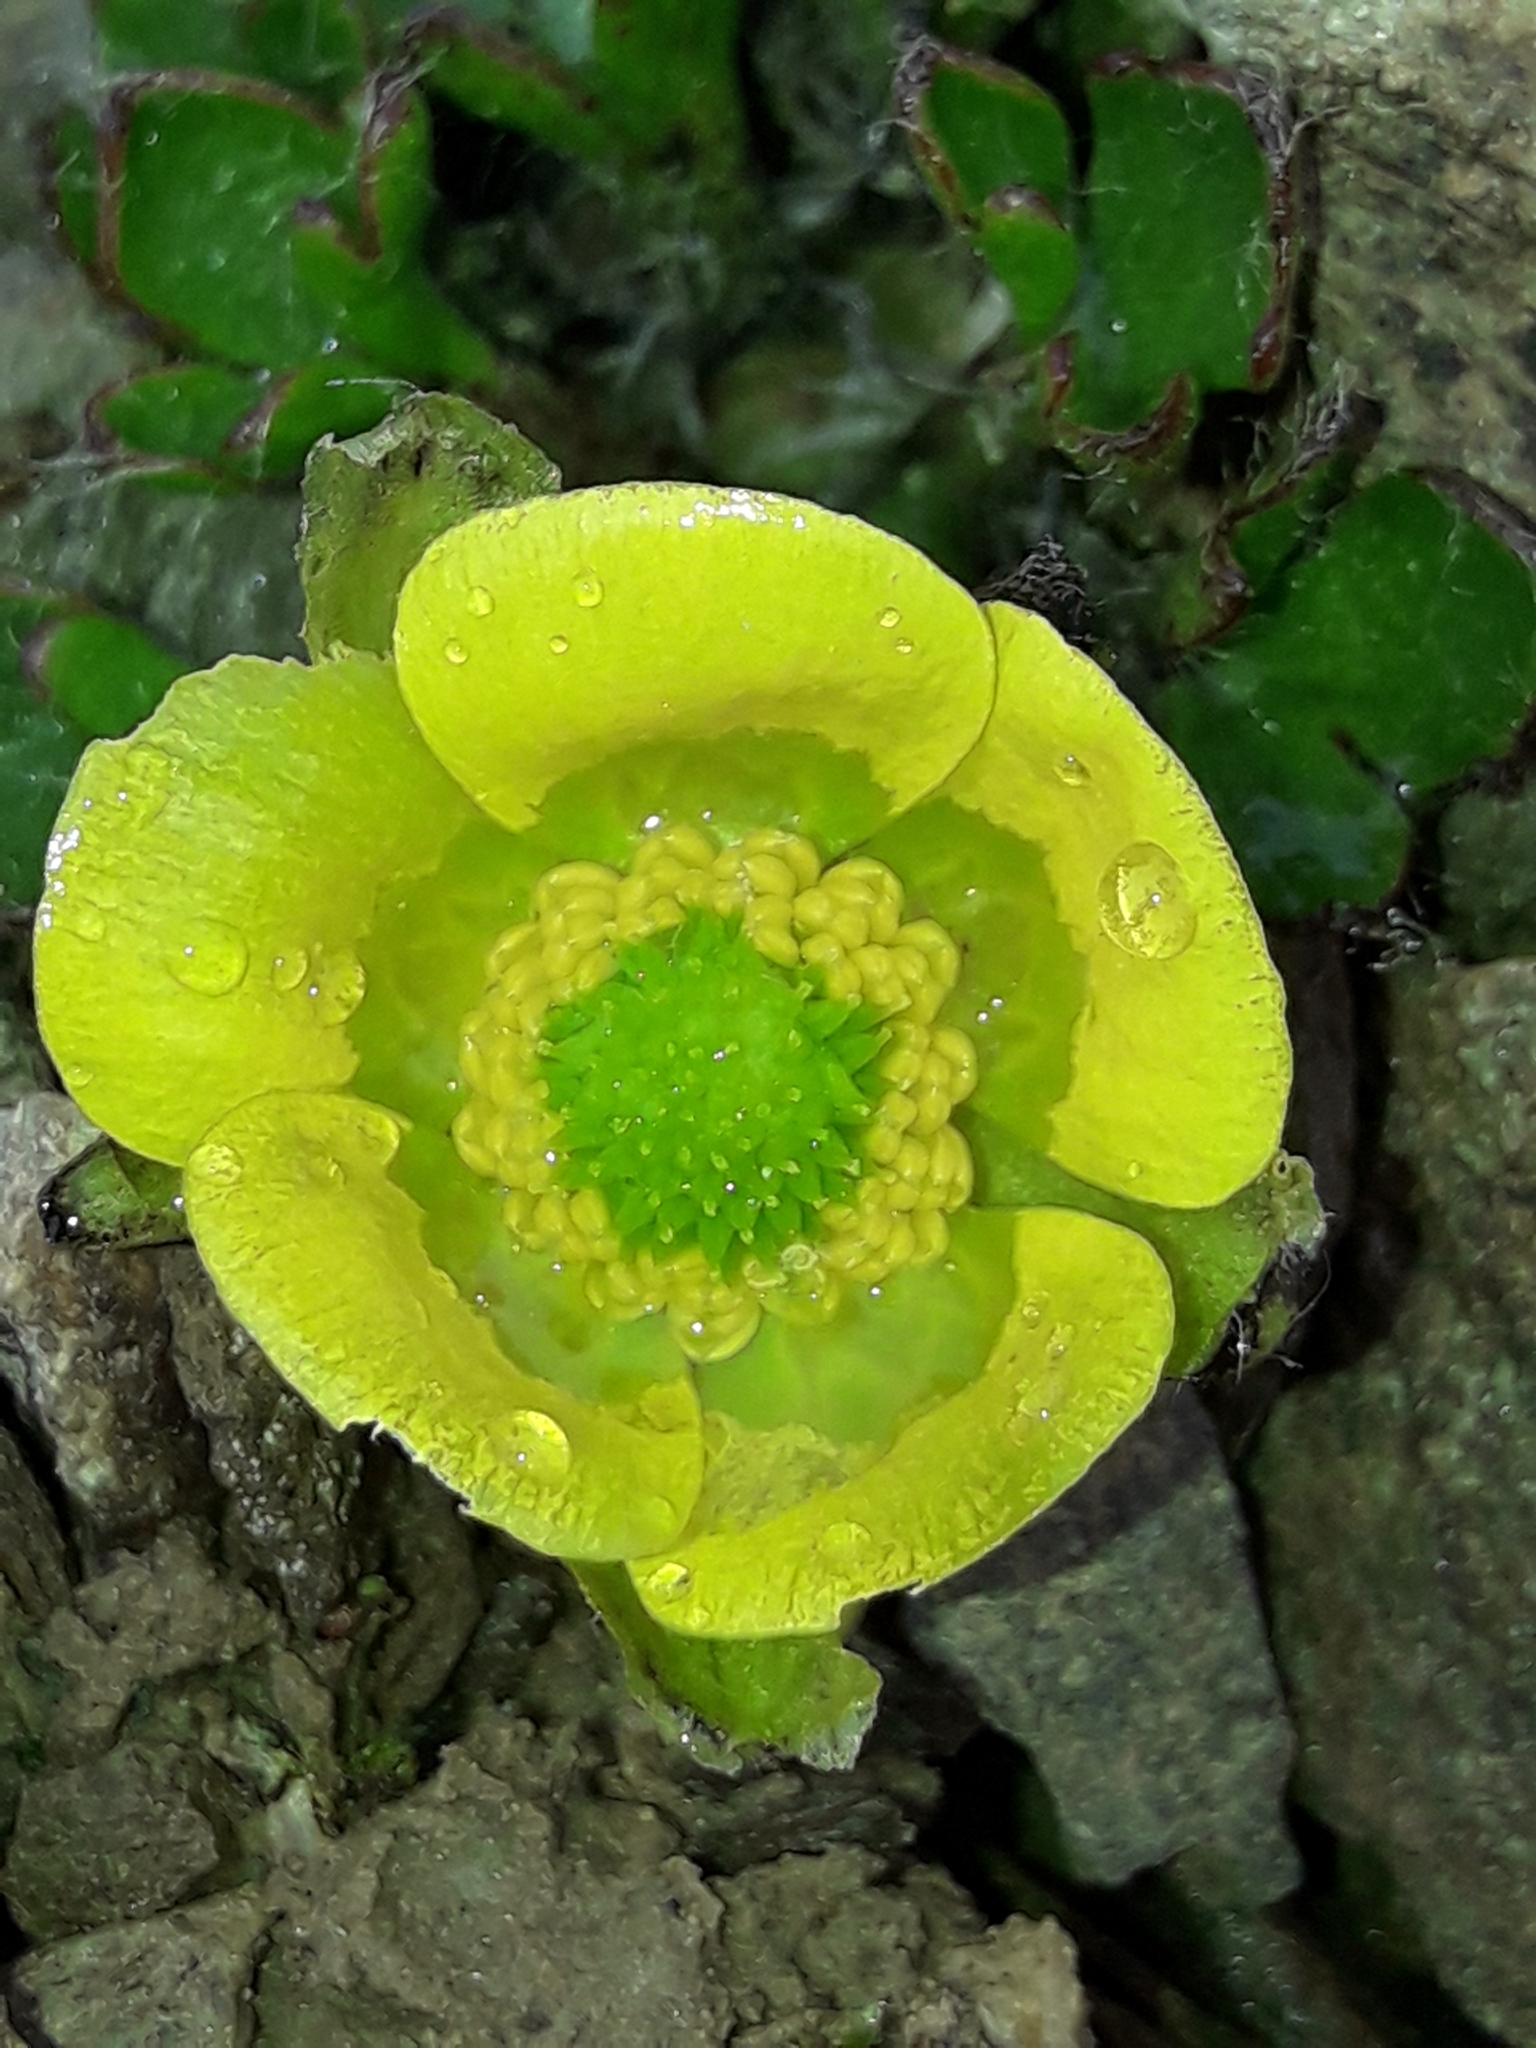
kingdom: Plantae
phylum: Tracheophyta
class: Magnoliopsida
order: Ranunculales
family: Ranunculaceae
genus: Ranunculus
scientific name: Ranunculus pachyrrhizus
